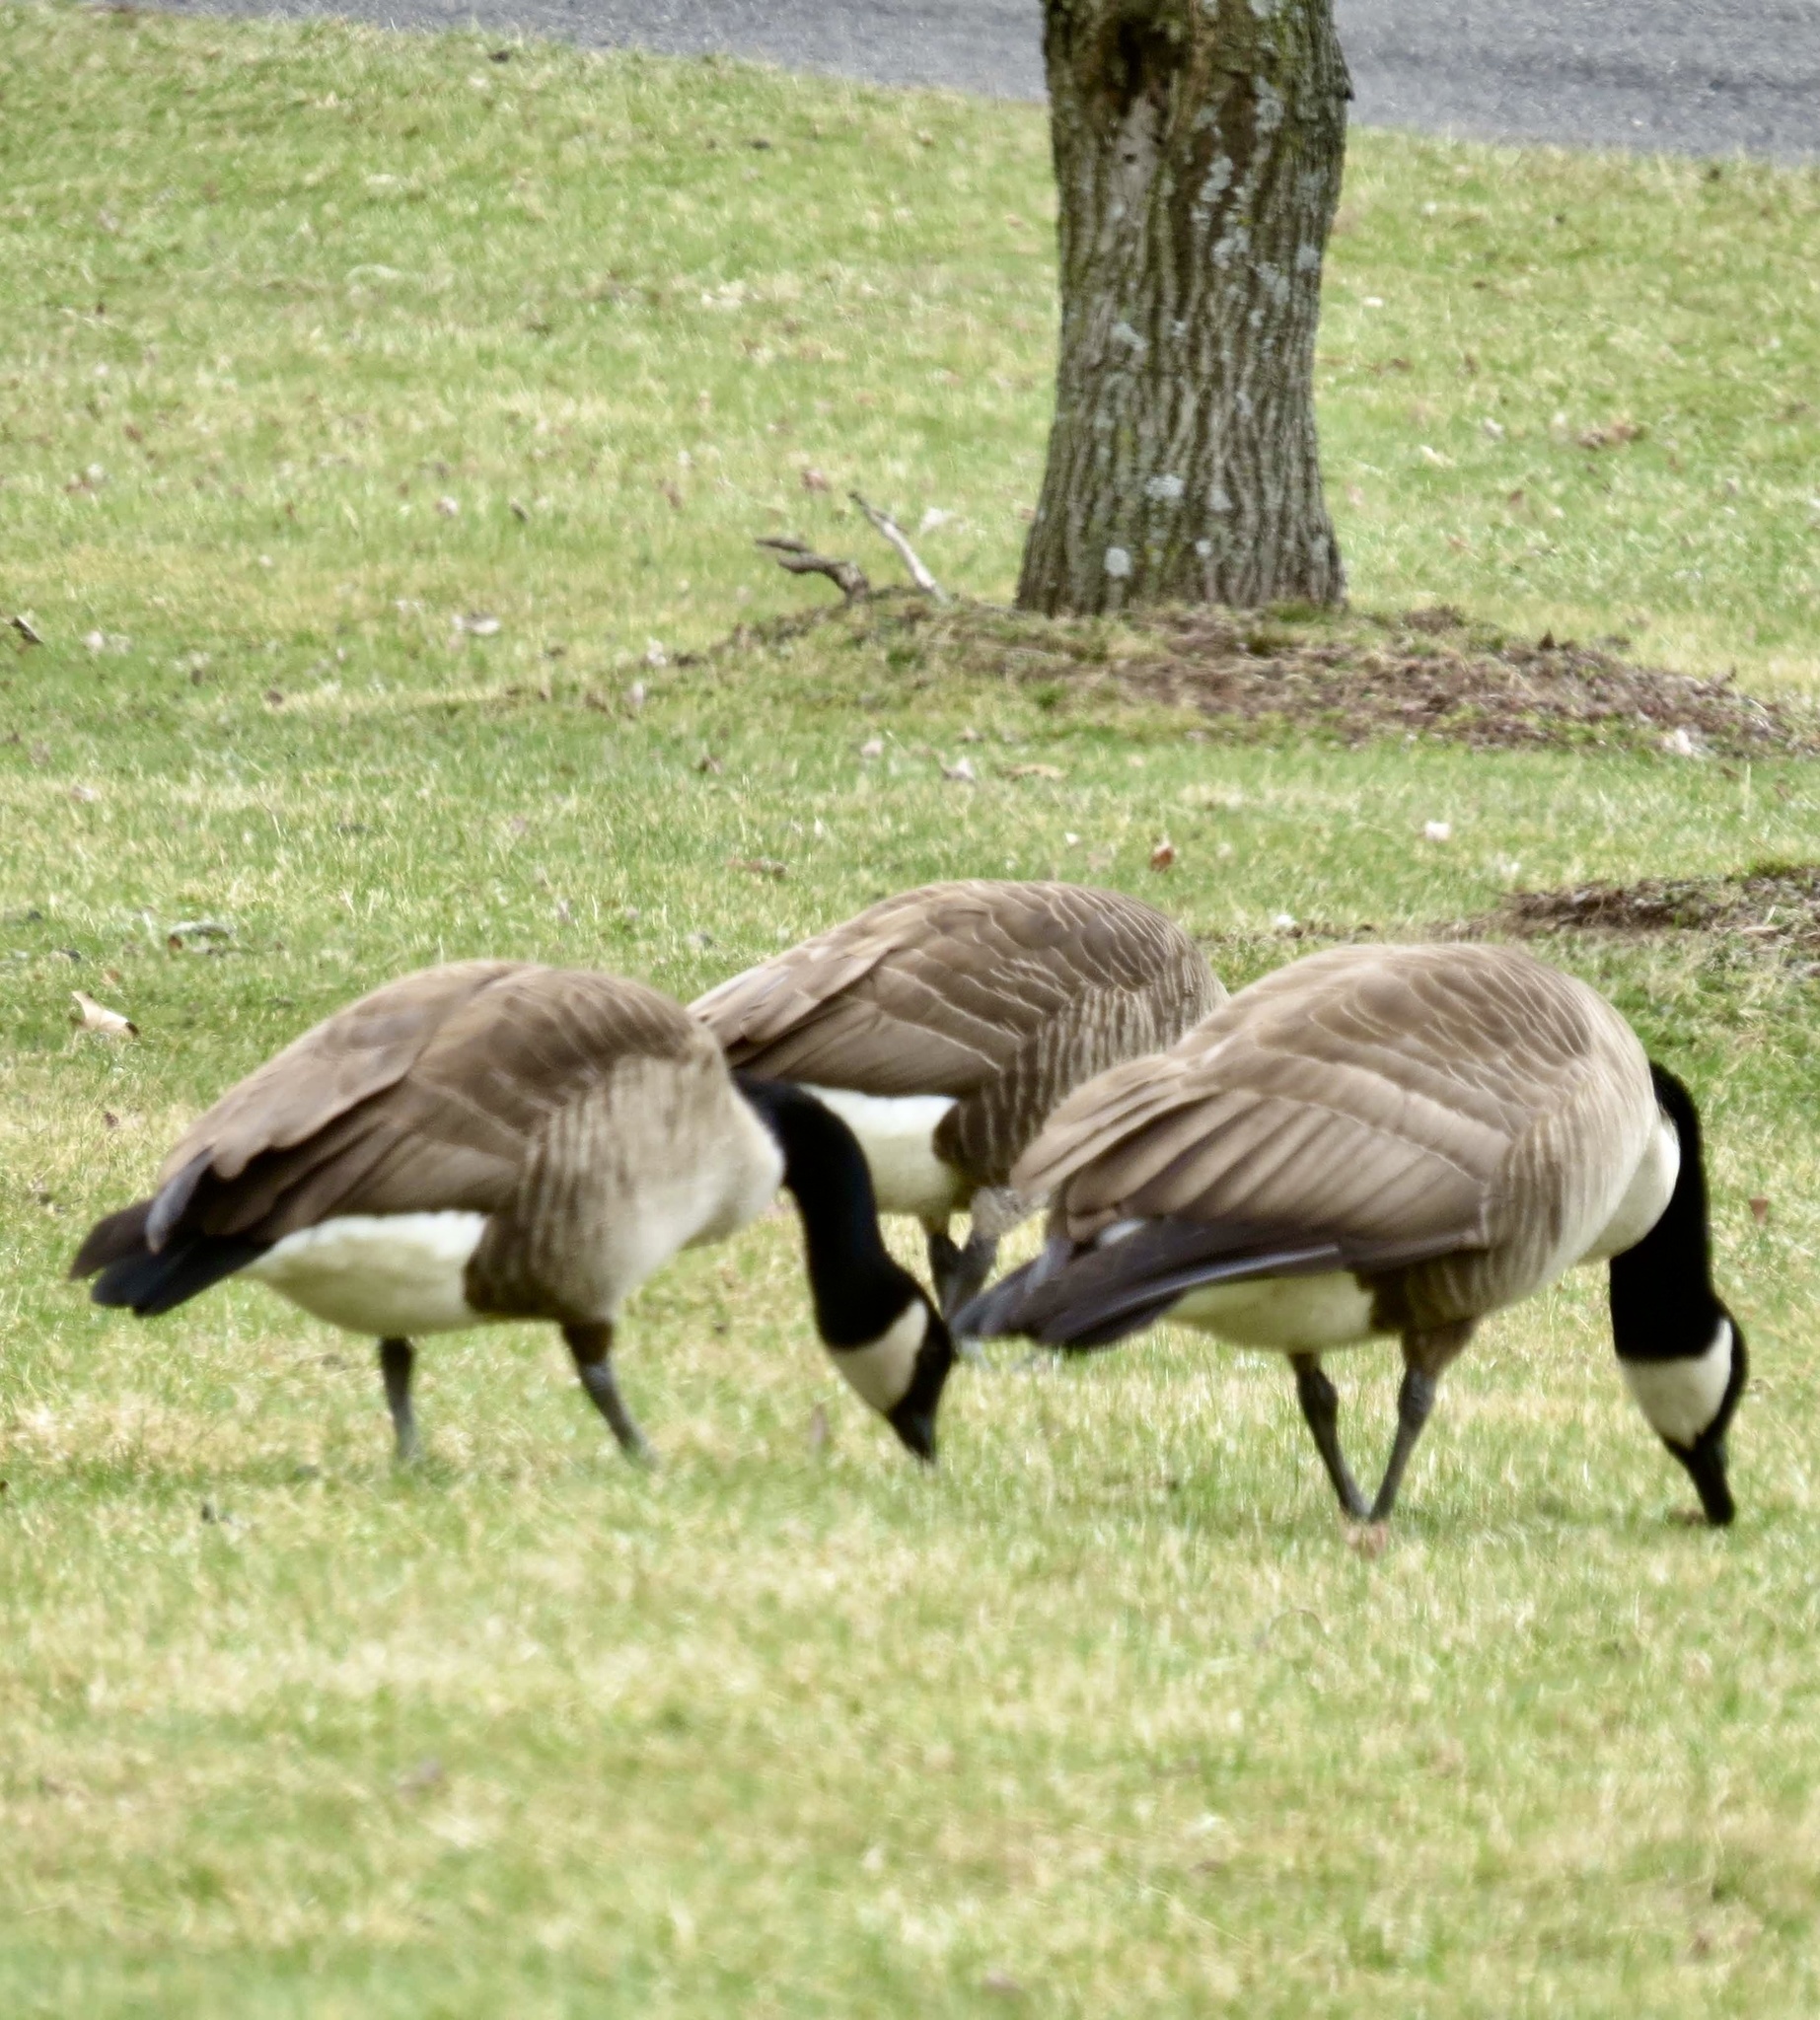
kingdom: Animalia
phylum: Chordata
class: Aves
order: Anseriformes
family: Anatidae
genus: Branta
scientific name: Branta canadensis
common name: Canada goose
